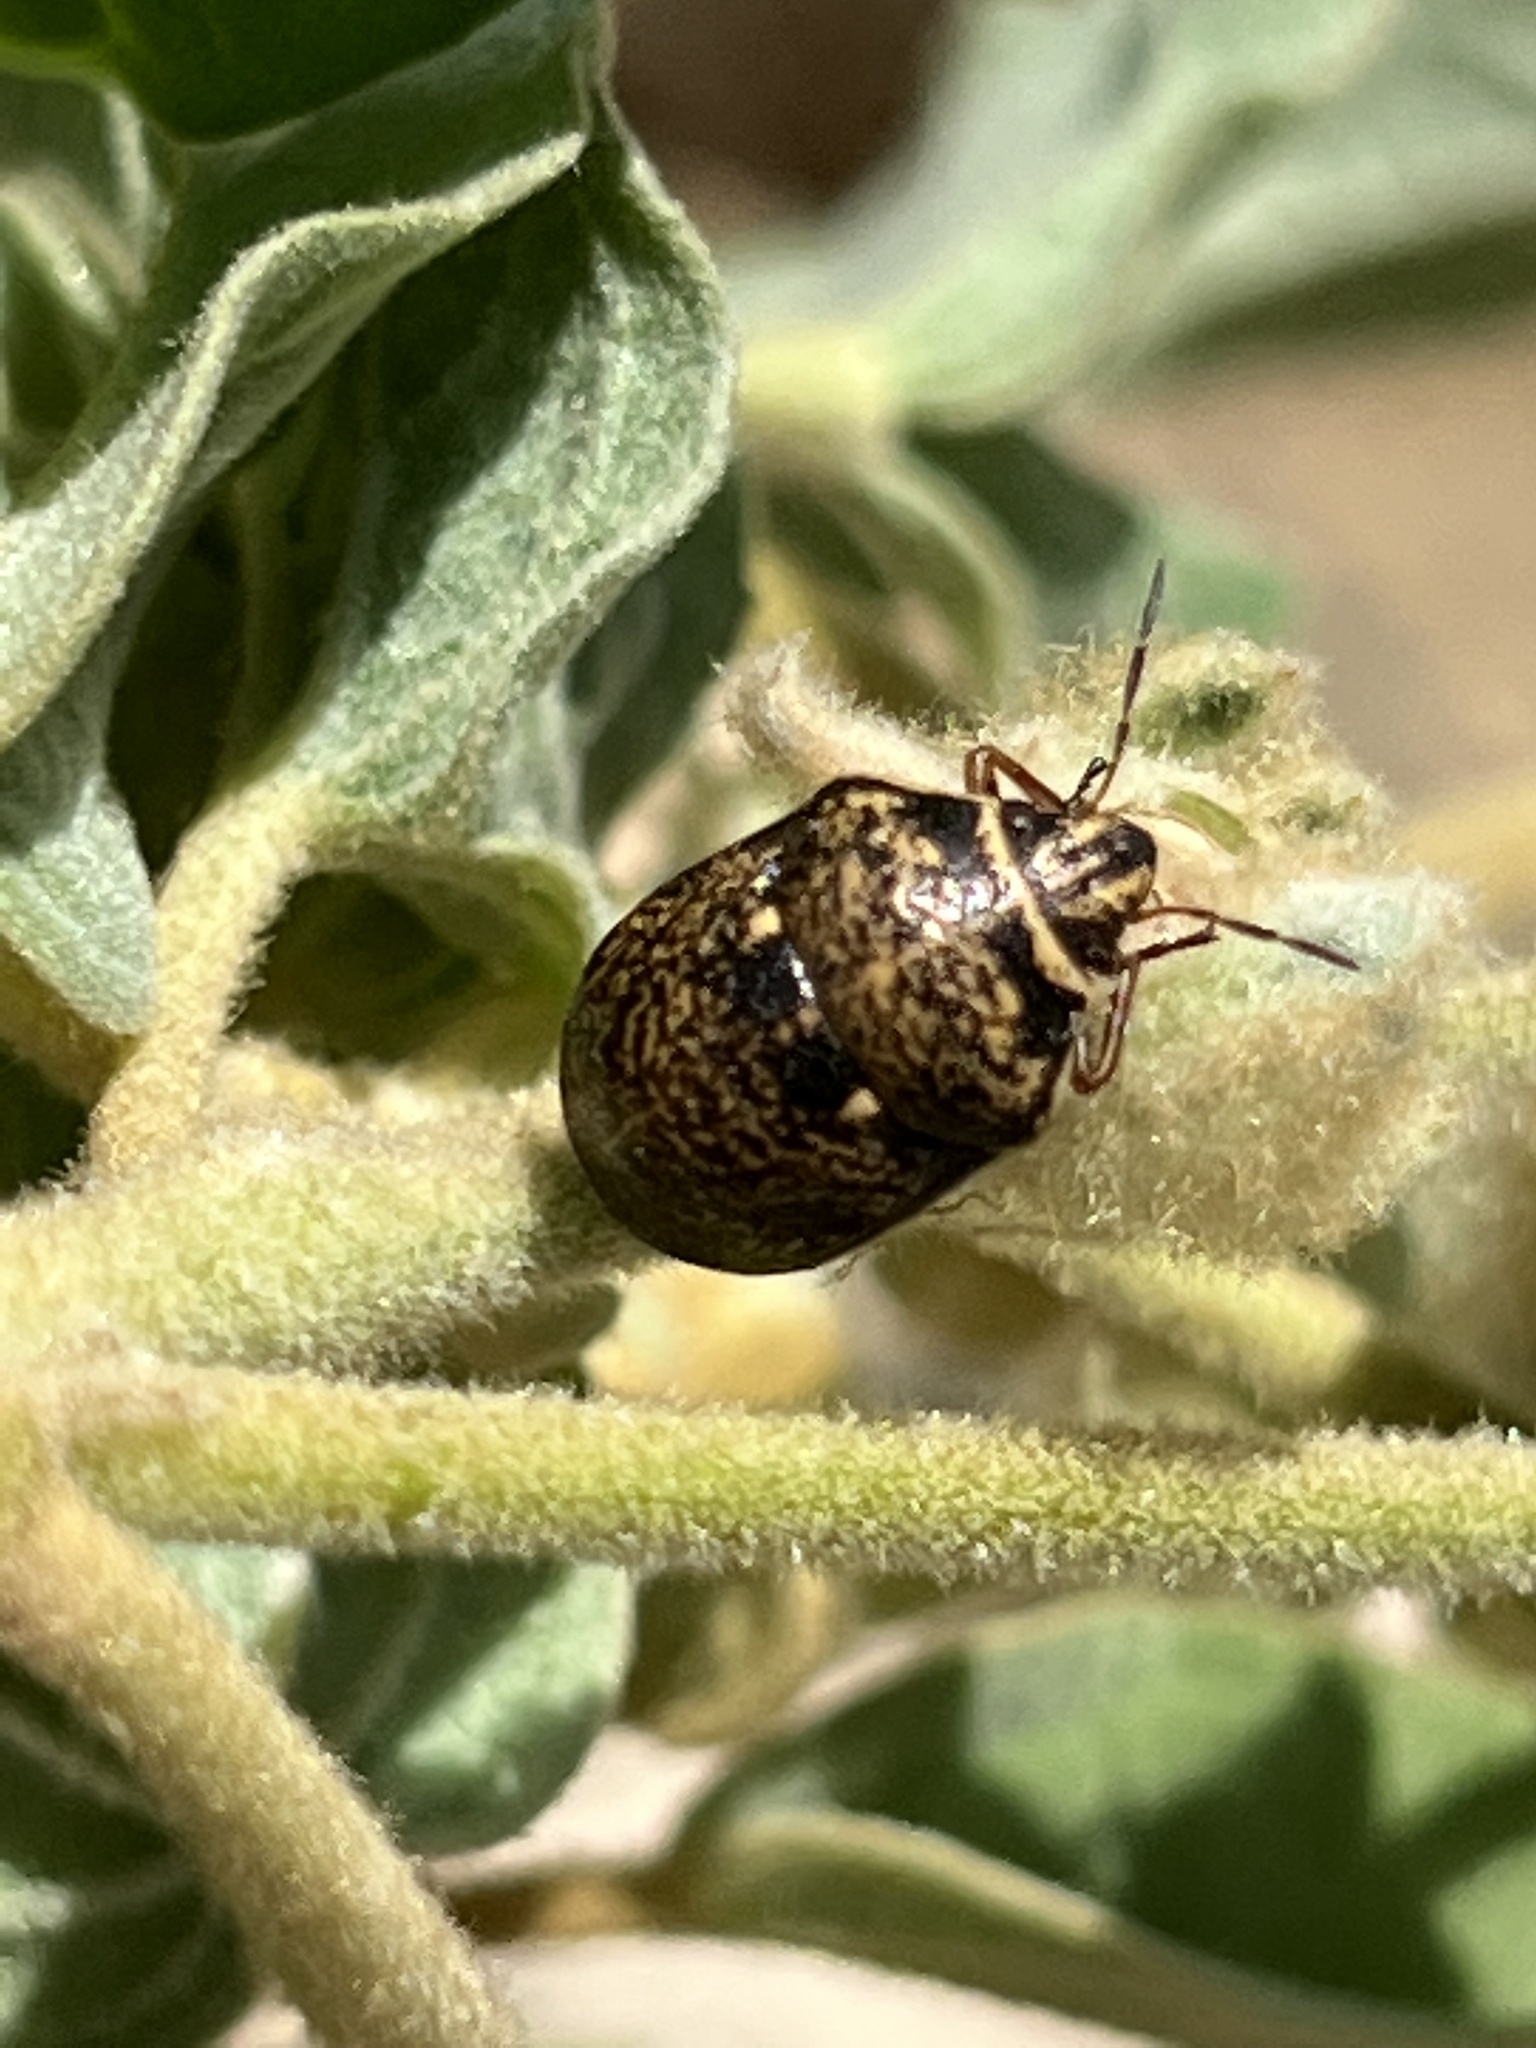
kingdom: Animalia
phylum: Arthropoda
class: Insecta
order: Hemiptera
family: Scutelleridae
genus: Orsilochides
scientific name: Orsilochides guttata
